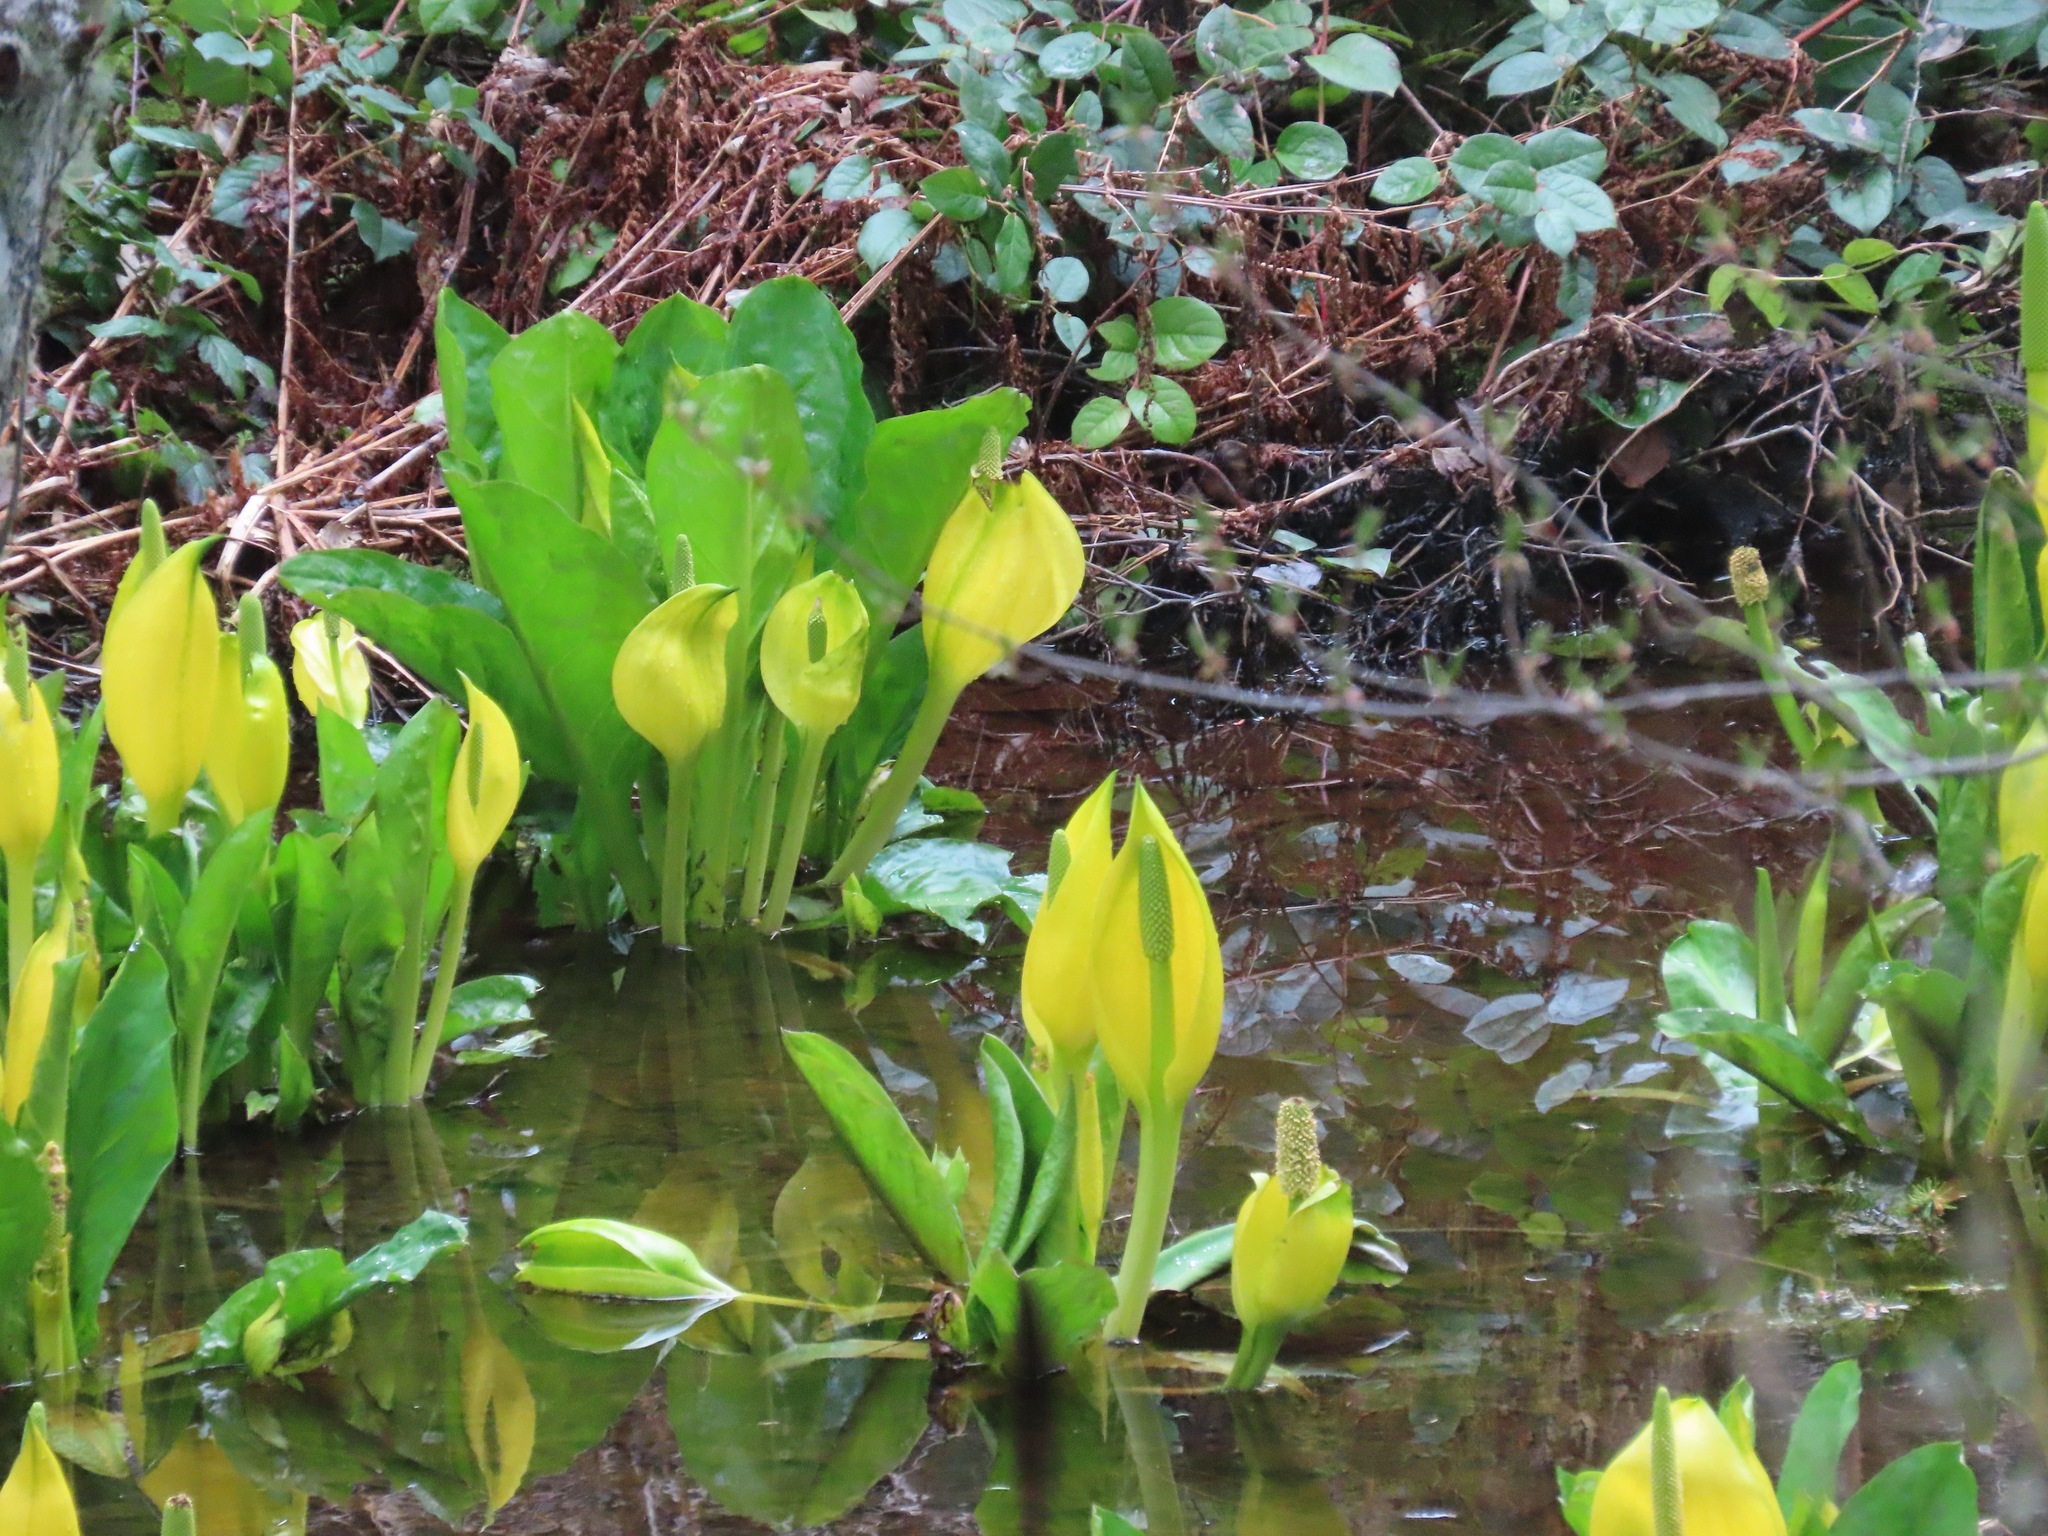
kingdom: Plantae
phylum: Tracheophyta
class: Liliopsida
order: Alismatales
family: Araceae
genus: Lysichiton
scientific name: Lysichiton americanus
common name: American skunk cabbage
